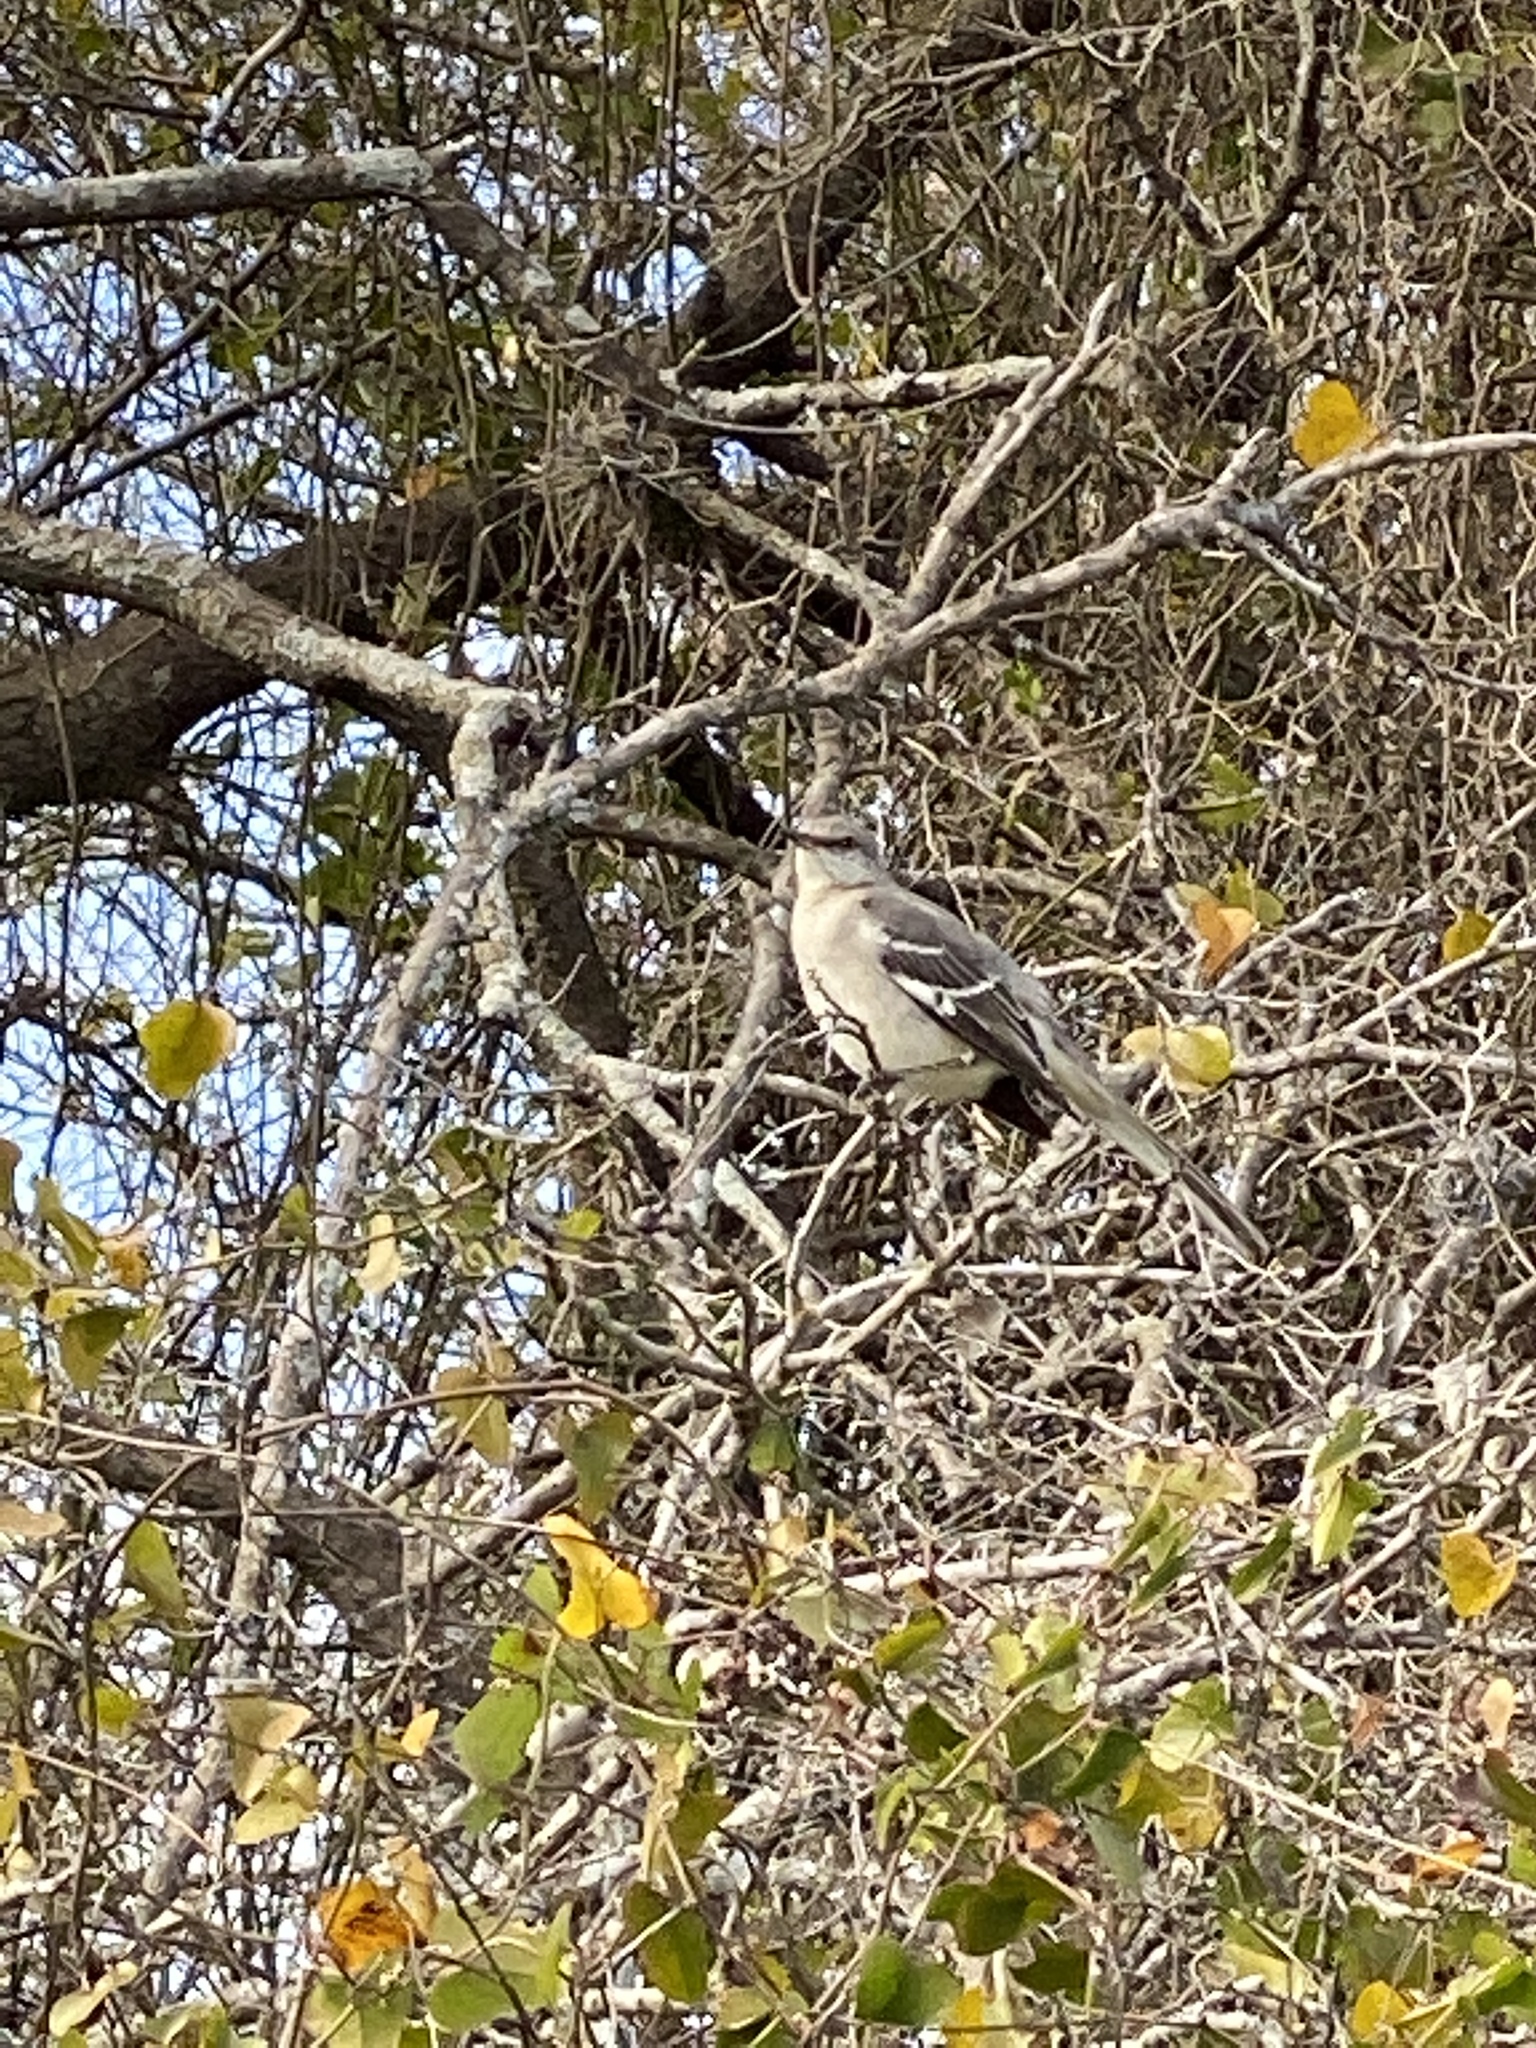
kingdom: Animalia
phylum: Chordata
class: Aves
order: Passeriformes
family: Mimidae
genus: Mimus
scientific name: Mimus polyglottos
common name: Northern mockingbird
